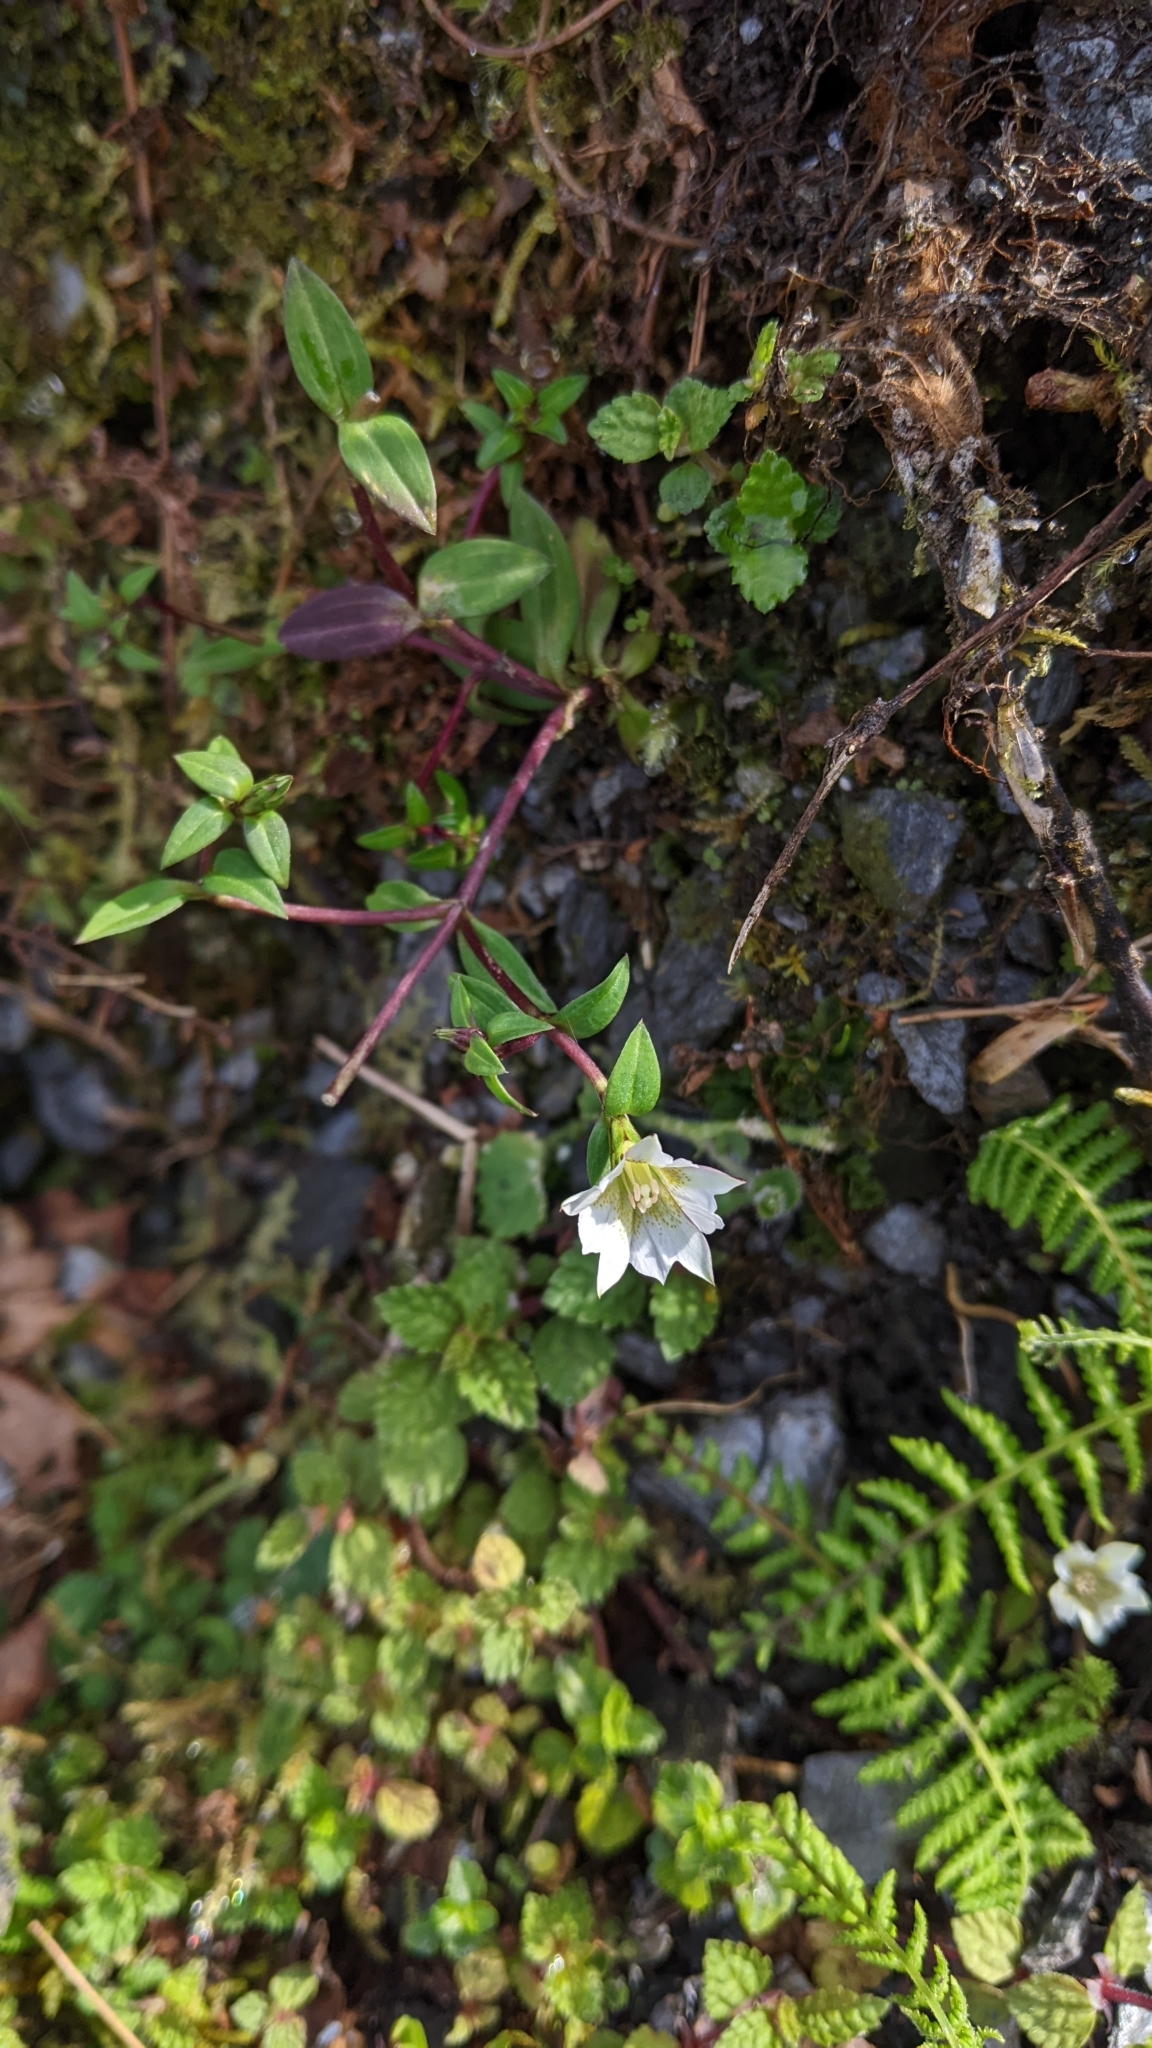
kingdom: Plantae
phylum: Tracheophyta
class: Magnoliopsida
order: Gentianales
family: Gentianaceae
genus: Gentiana
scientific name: Gentiana flavomaculata
